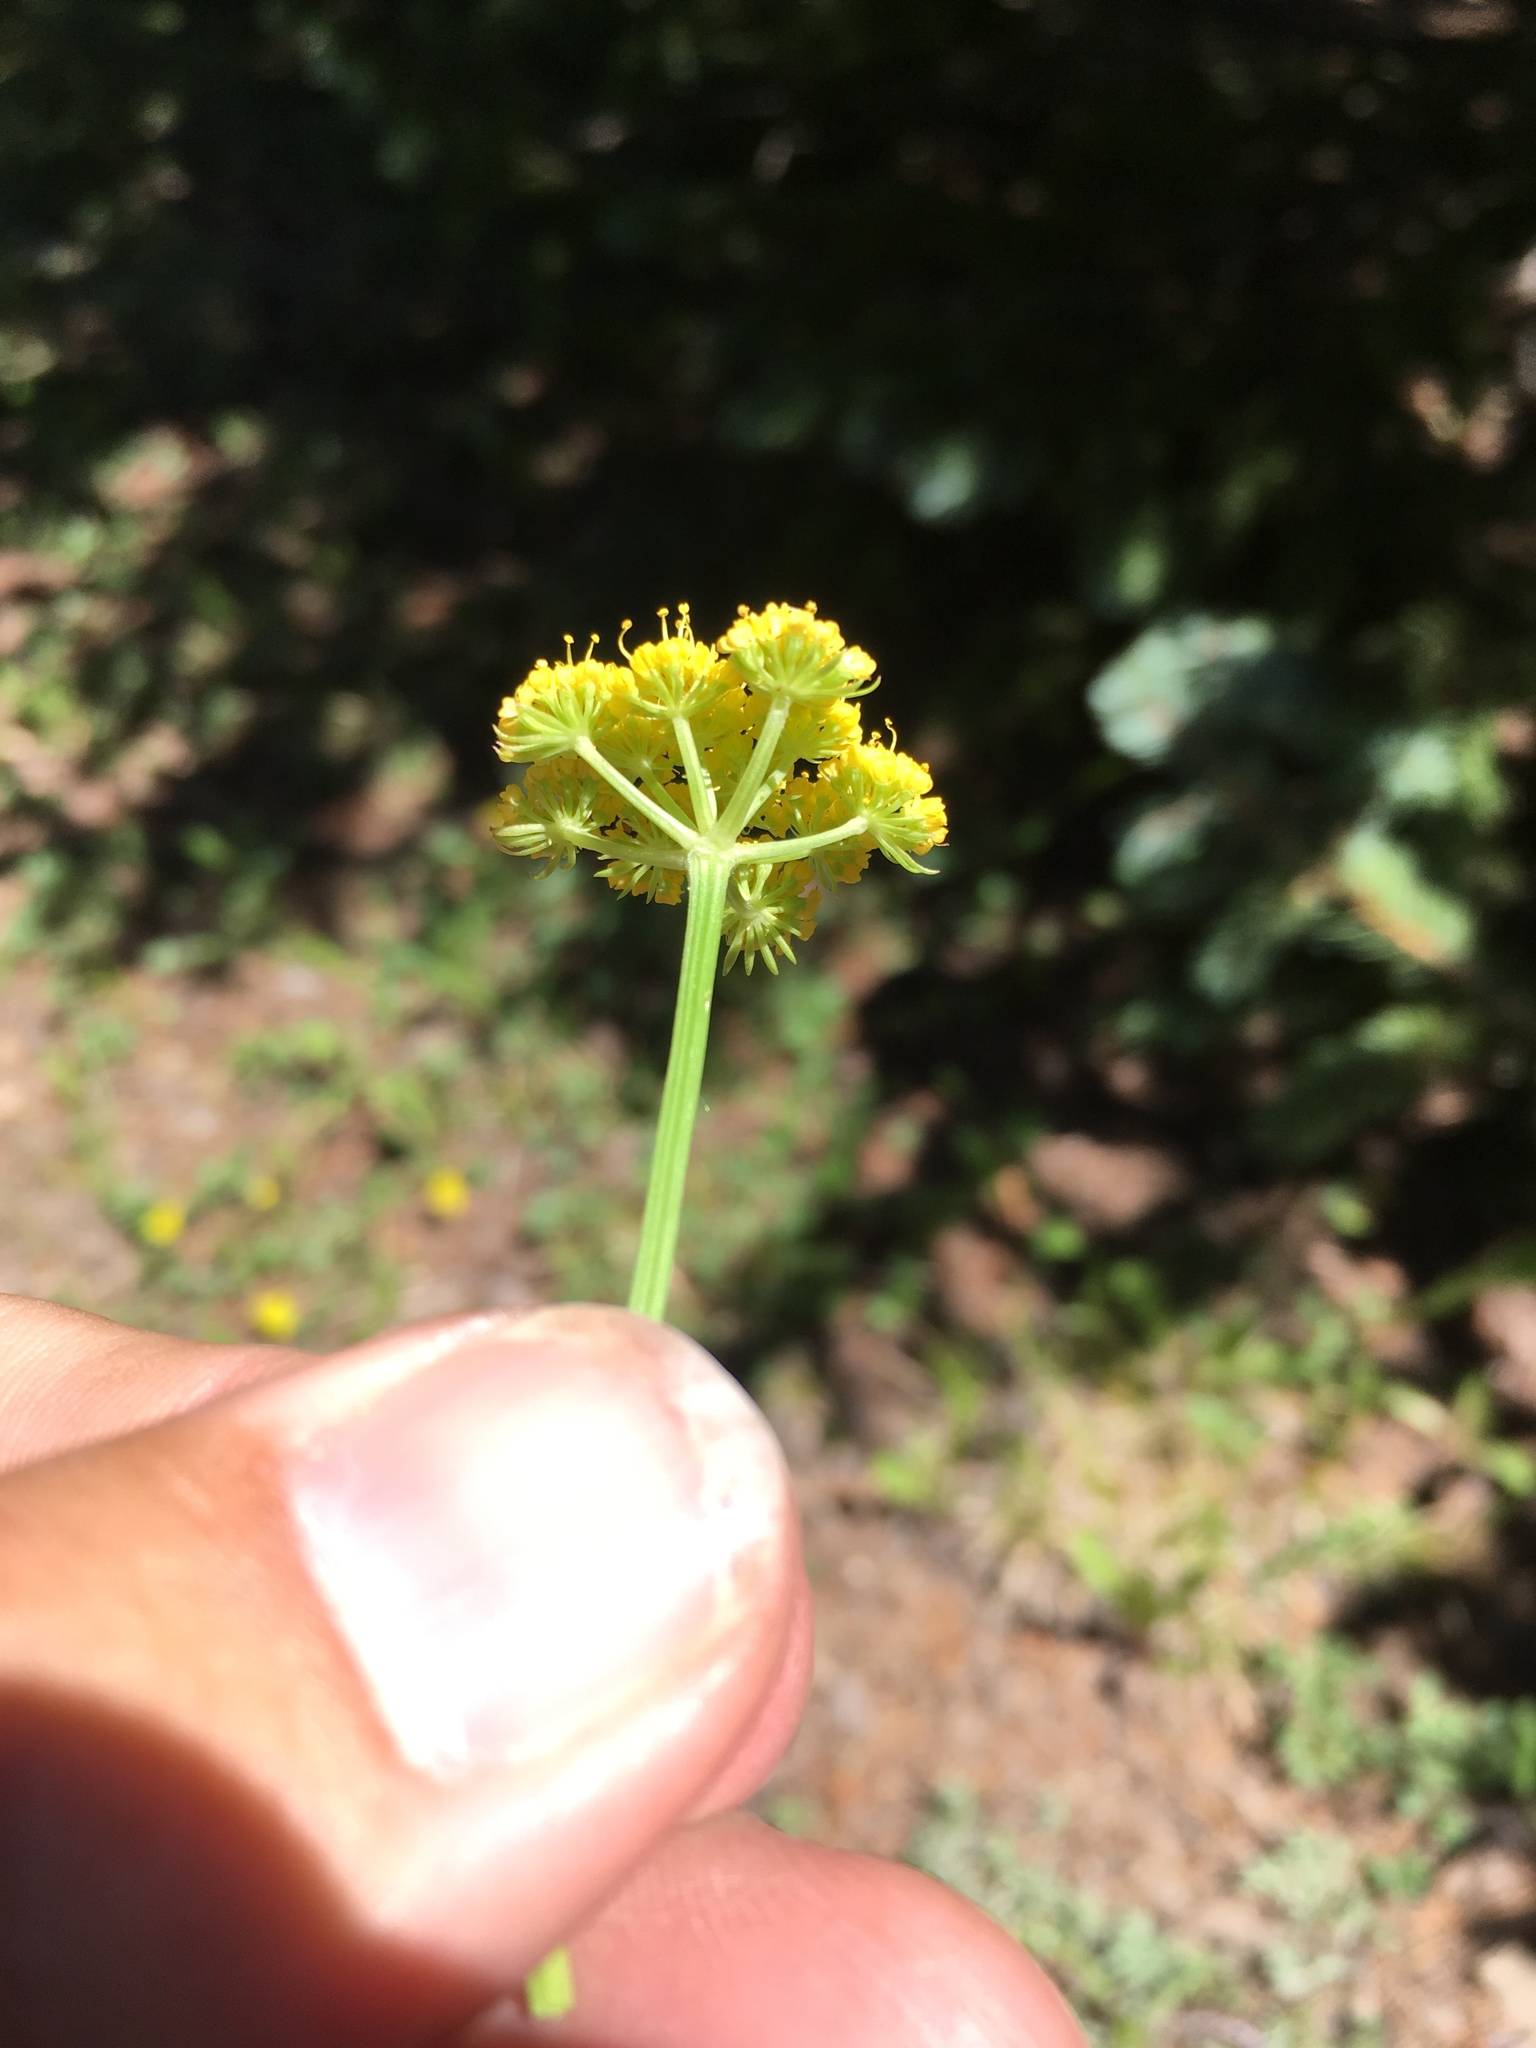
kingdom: Plantae
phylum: Tracheophyta
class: Magnoliopsida
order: Apiales
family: Apiaceae
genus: Cymopterus
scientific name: Cymopterus lemmonii
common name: Lemmon's spring-parsley
